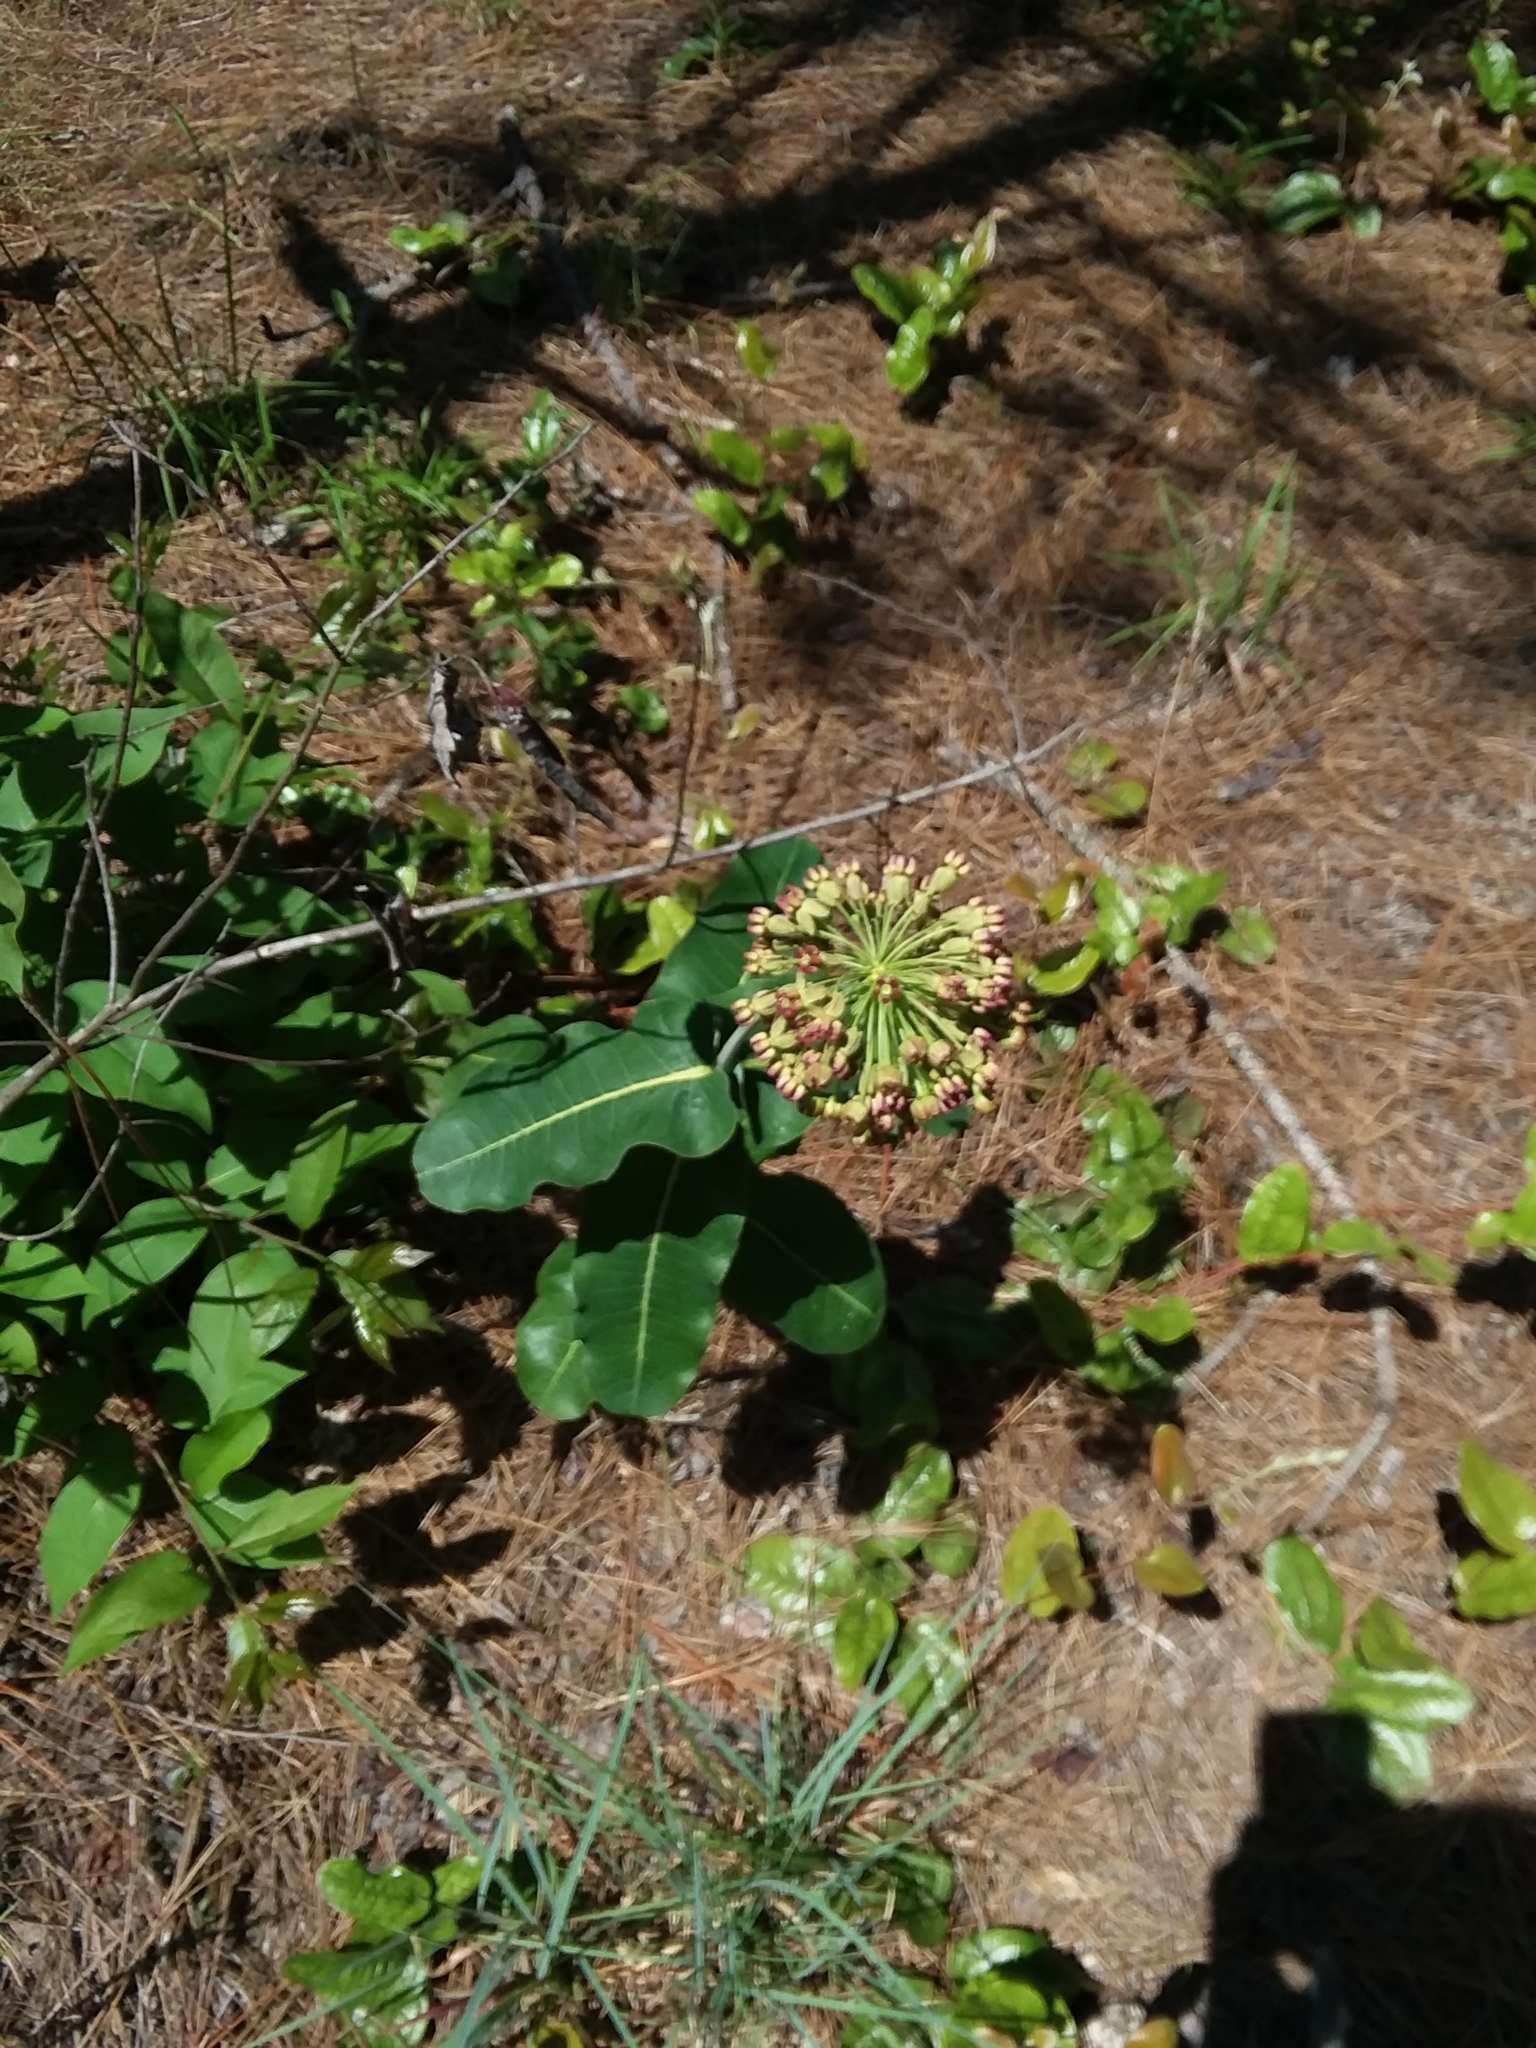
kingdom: Plantae
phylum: Tracheophyta
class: Magnoliopsida
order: Gentianales
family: Apocynaceae
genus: Asclepias
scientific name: Asclepias amplexicaulis
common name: Blunt-leaf milkweed
